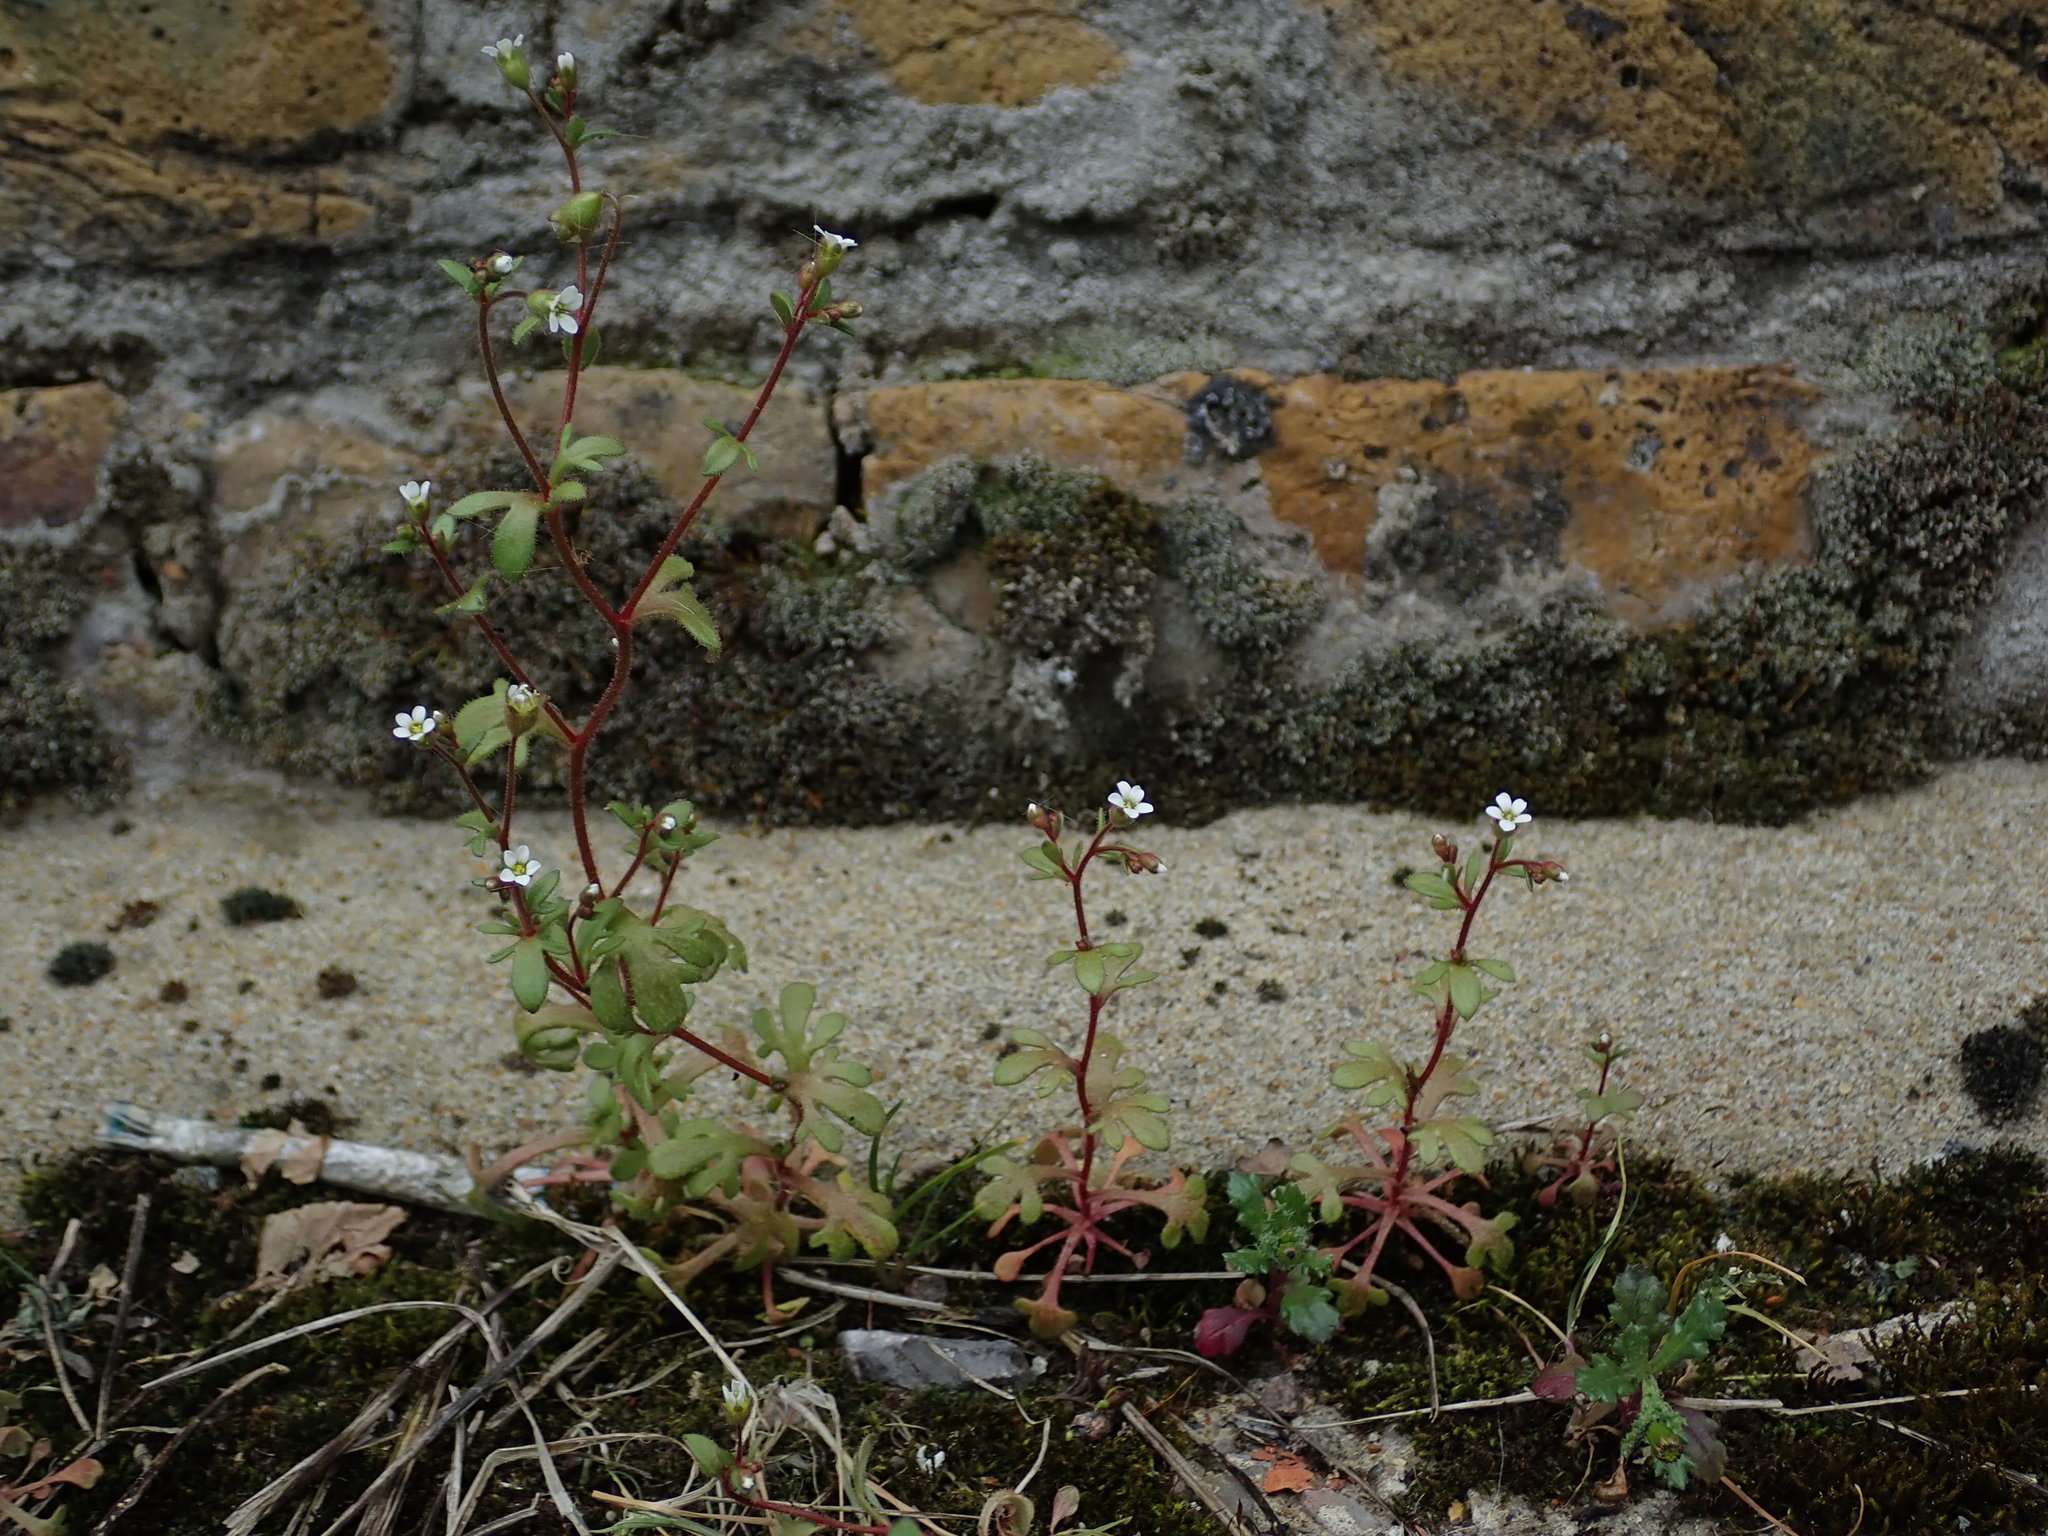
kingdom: Plantae
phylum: Tracheophyta
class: Magnoliopsida
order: Saxifragales
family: Saxifragaceae
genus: Saxifraga
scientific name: Saxifraga tridactylites
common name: Rue-leaved saxifrage
